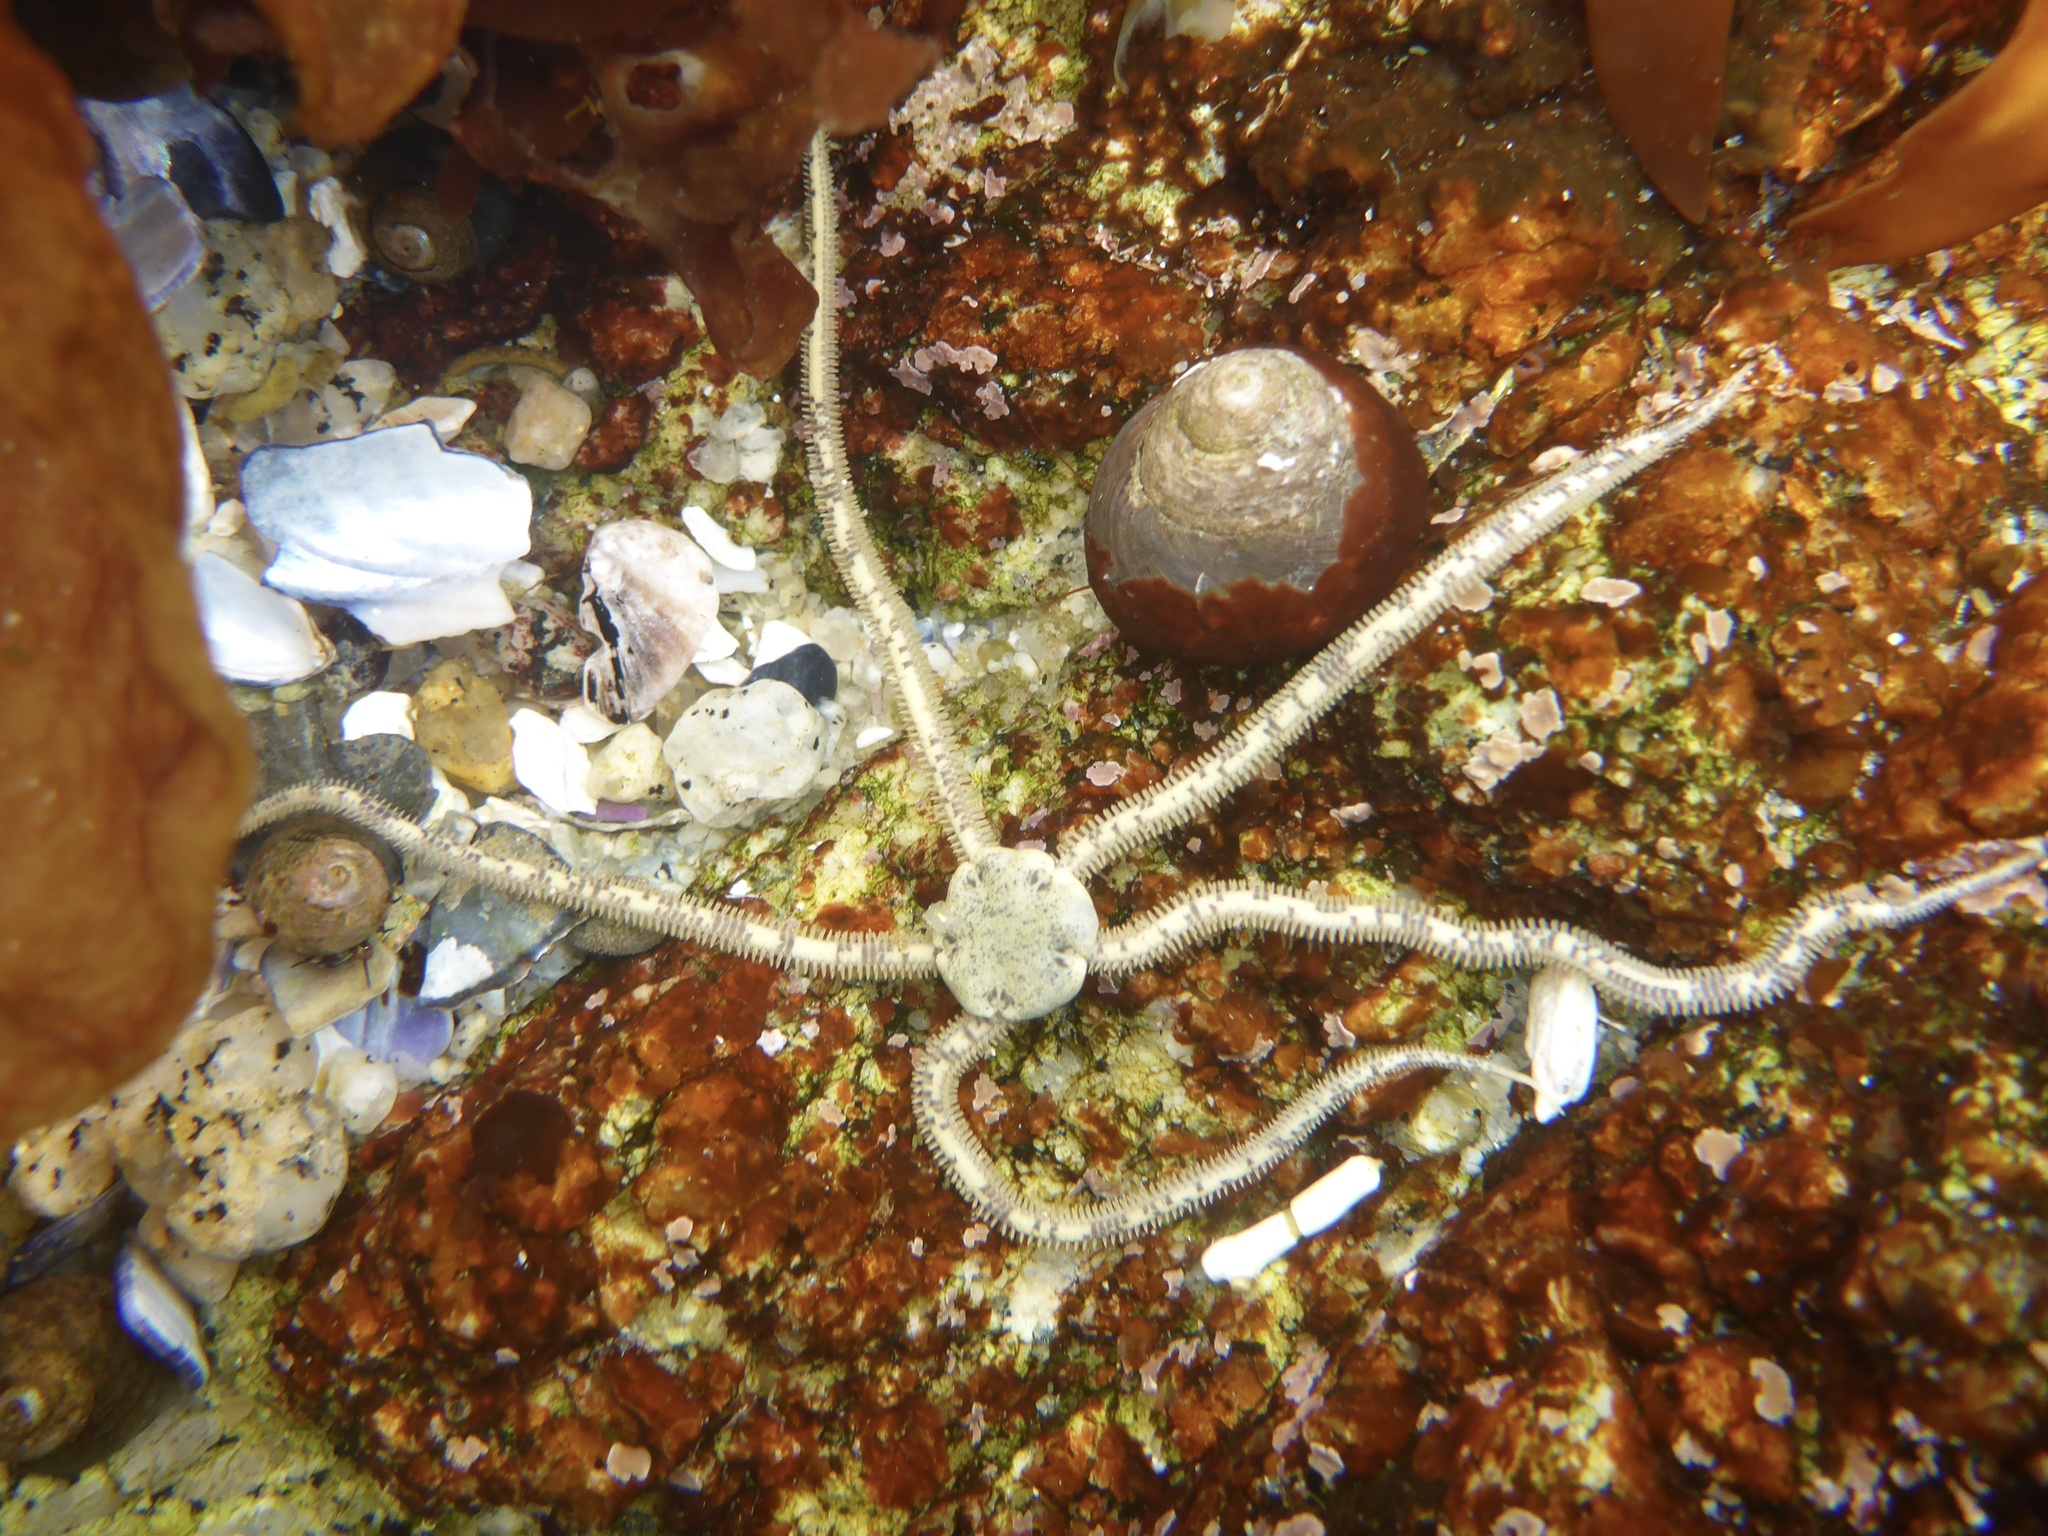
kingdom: Animalia
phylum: Echinodermata
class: Ophiuroidea
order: Amphilepidida
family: Amphiuridae
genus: Amphiodia
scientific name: Amphiodia occidentalis
